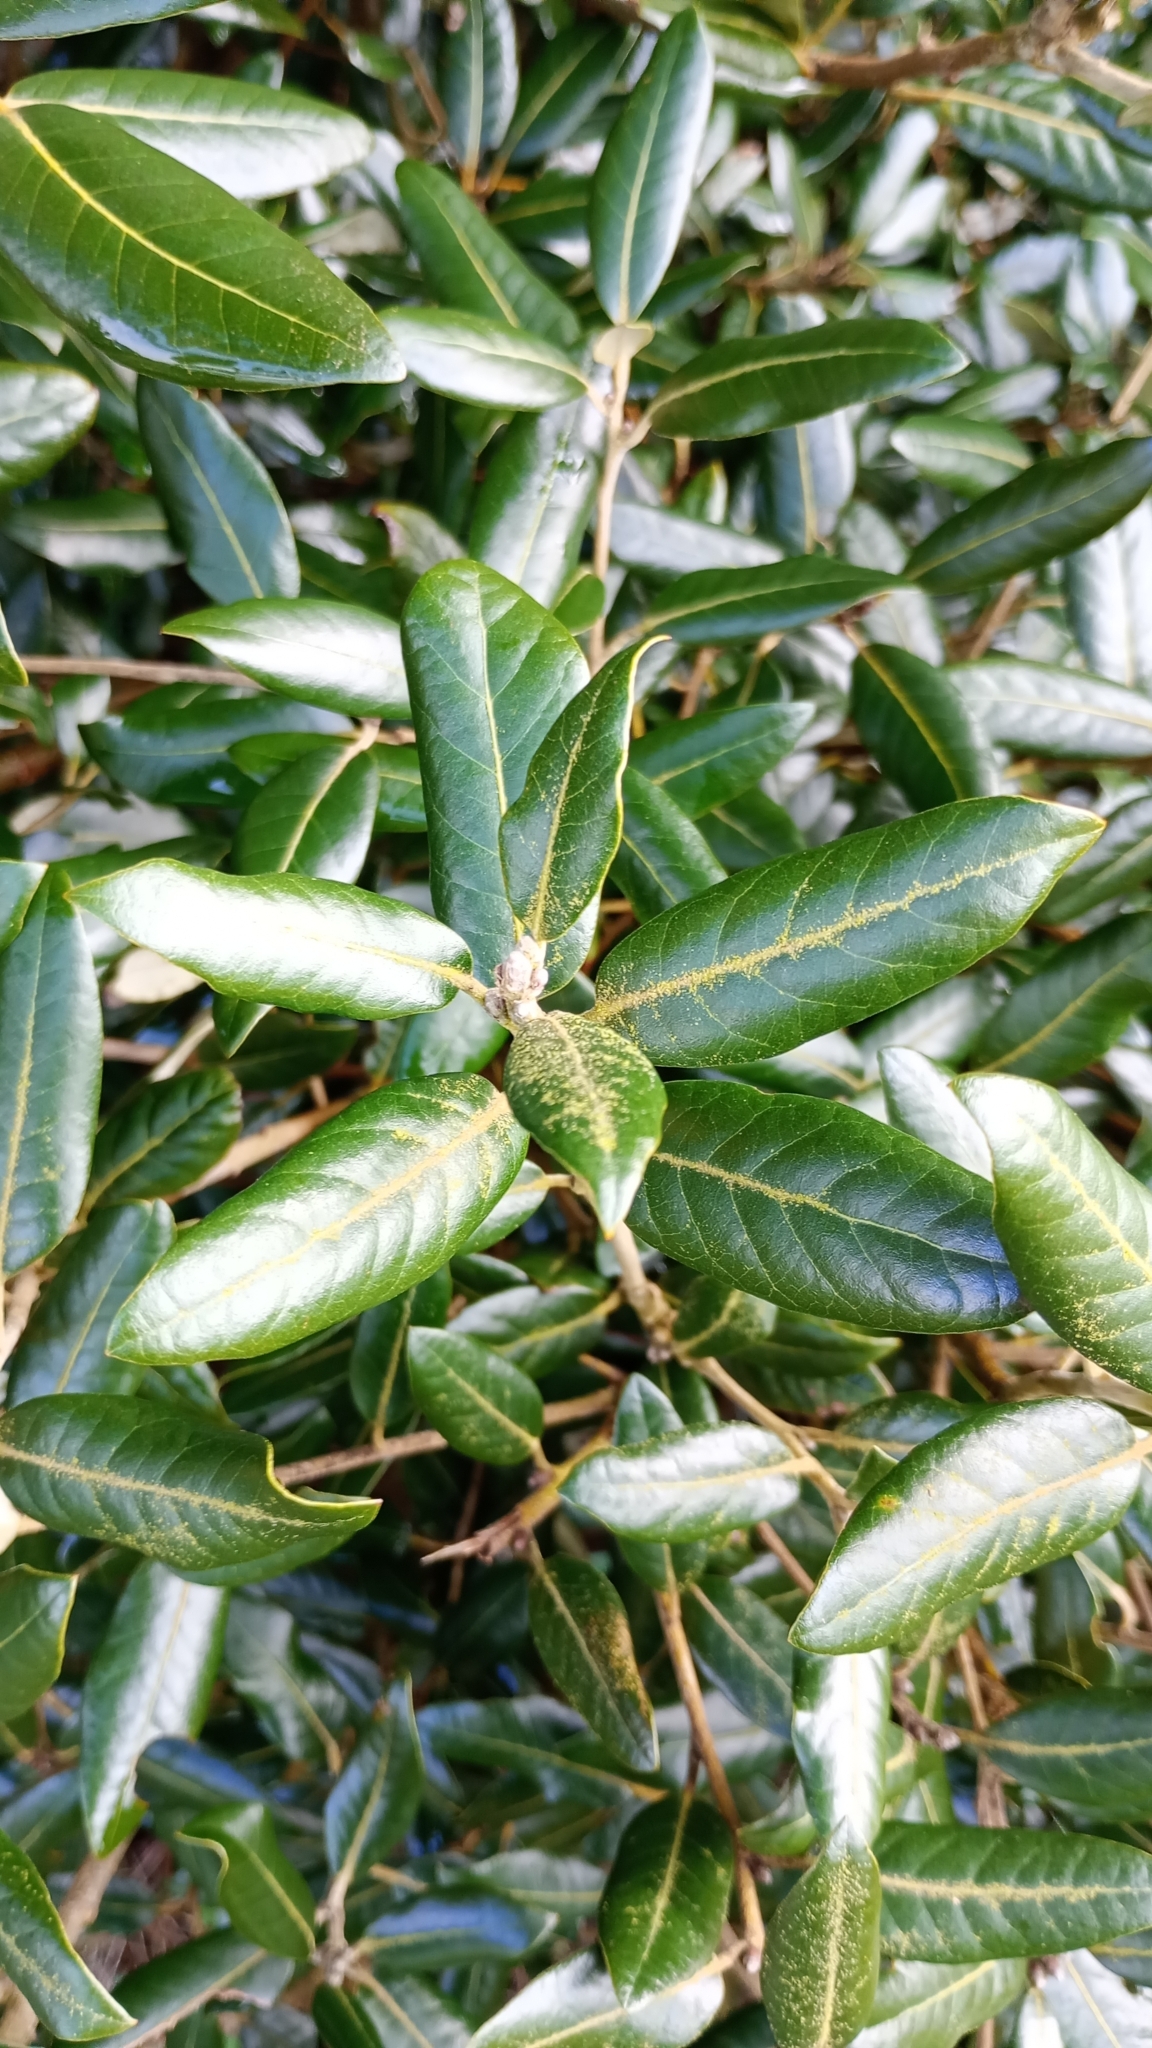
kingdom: Plantae
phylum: Tracheophyta
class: Magnoliopsida
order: Fagales
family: Fagaceae
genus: Quercus
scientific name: Quercus ilex
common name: Evergreen oak
